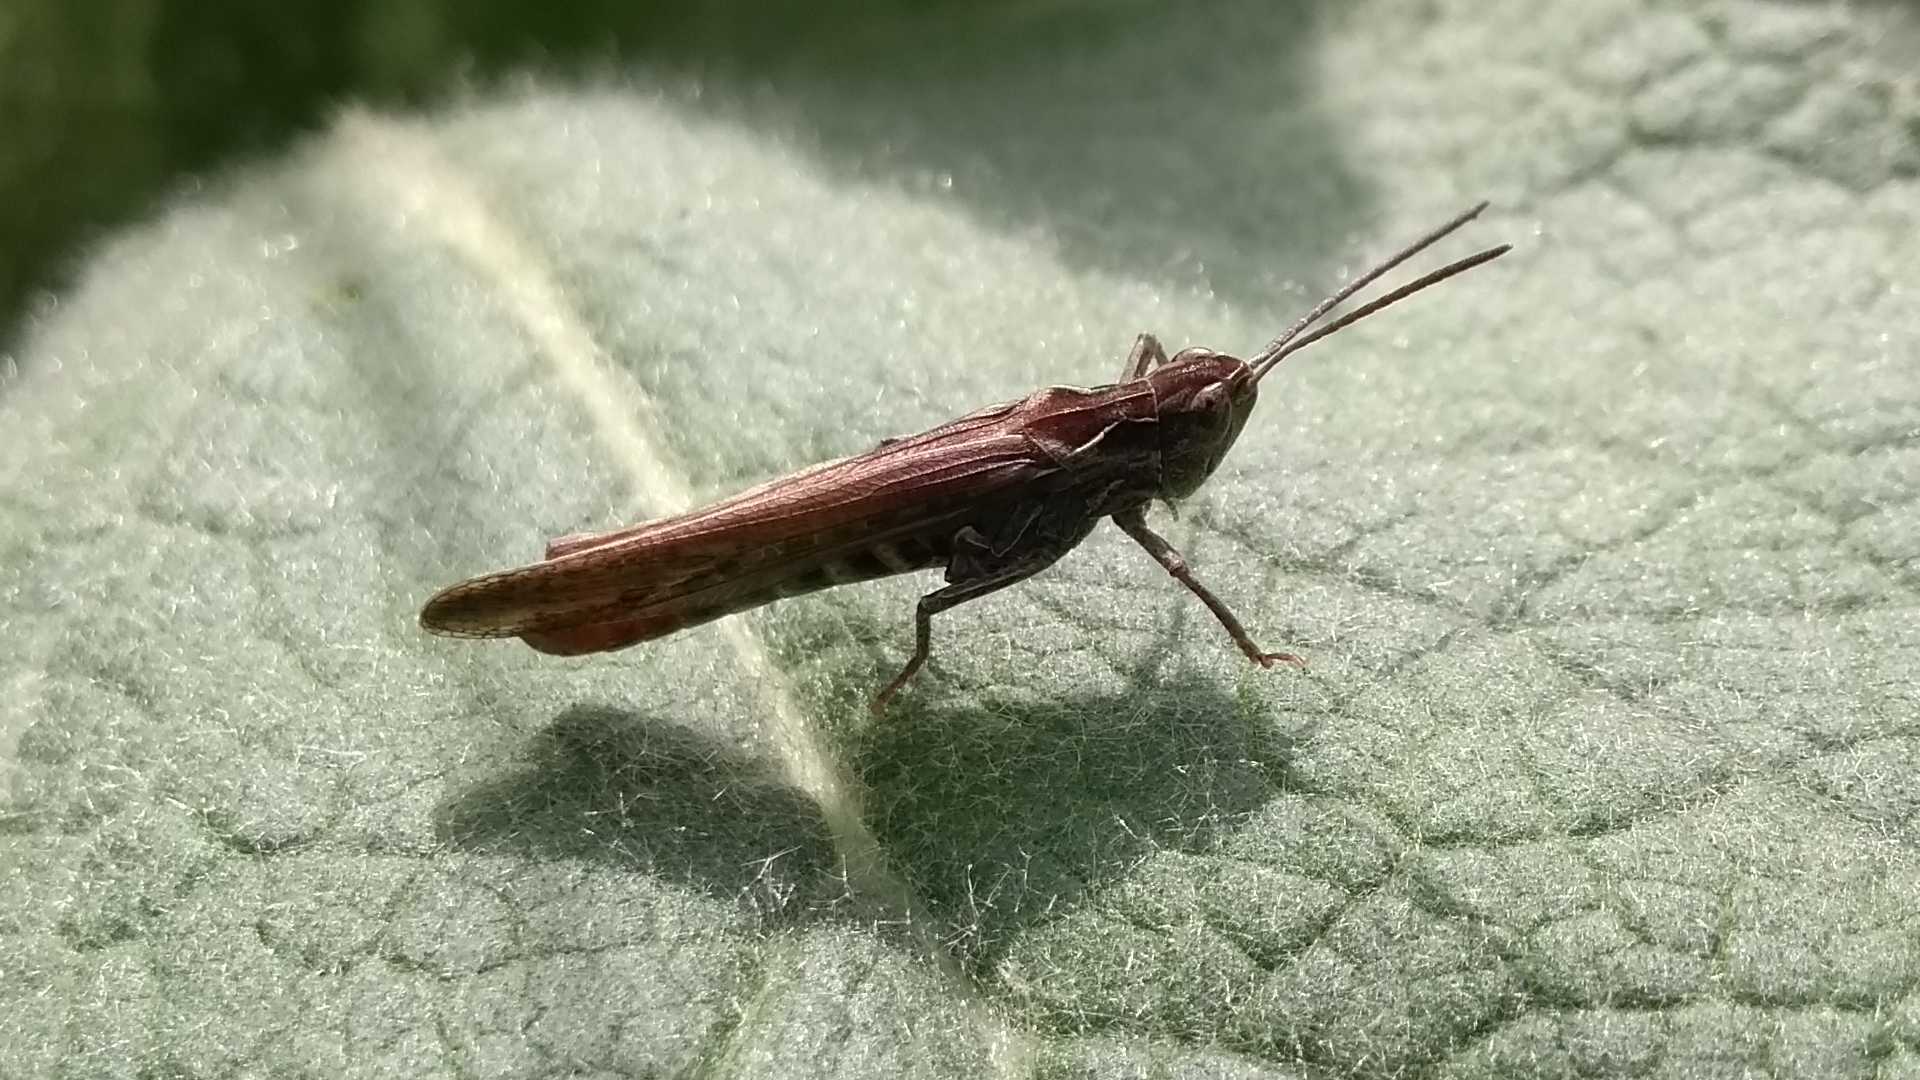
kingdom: Animalia
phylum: Arthropoda
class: Insecta
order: Orthoptera
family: Acrididae
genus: Chorthippus
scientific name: Chorthippus brunneus
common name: Field grasshopper
